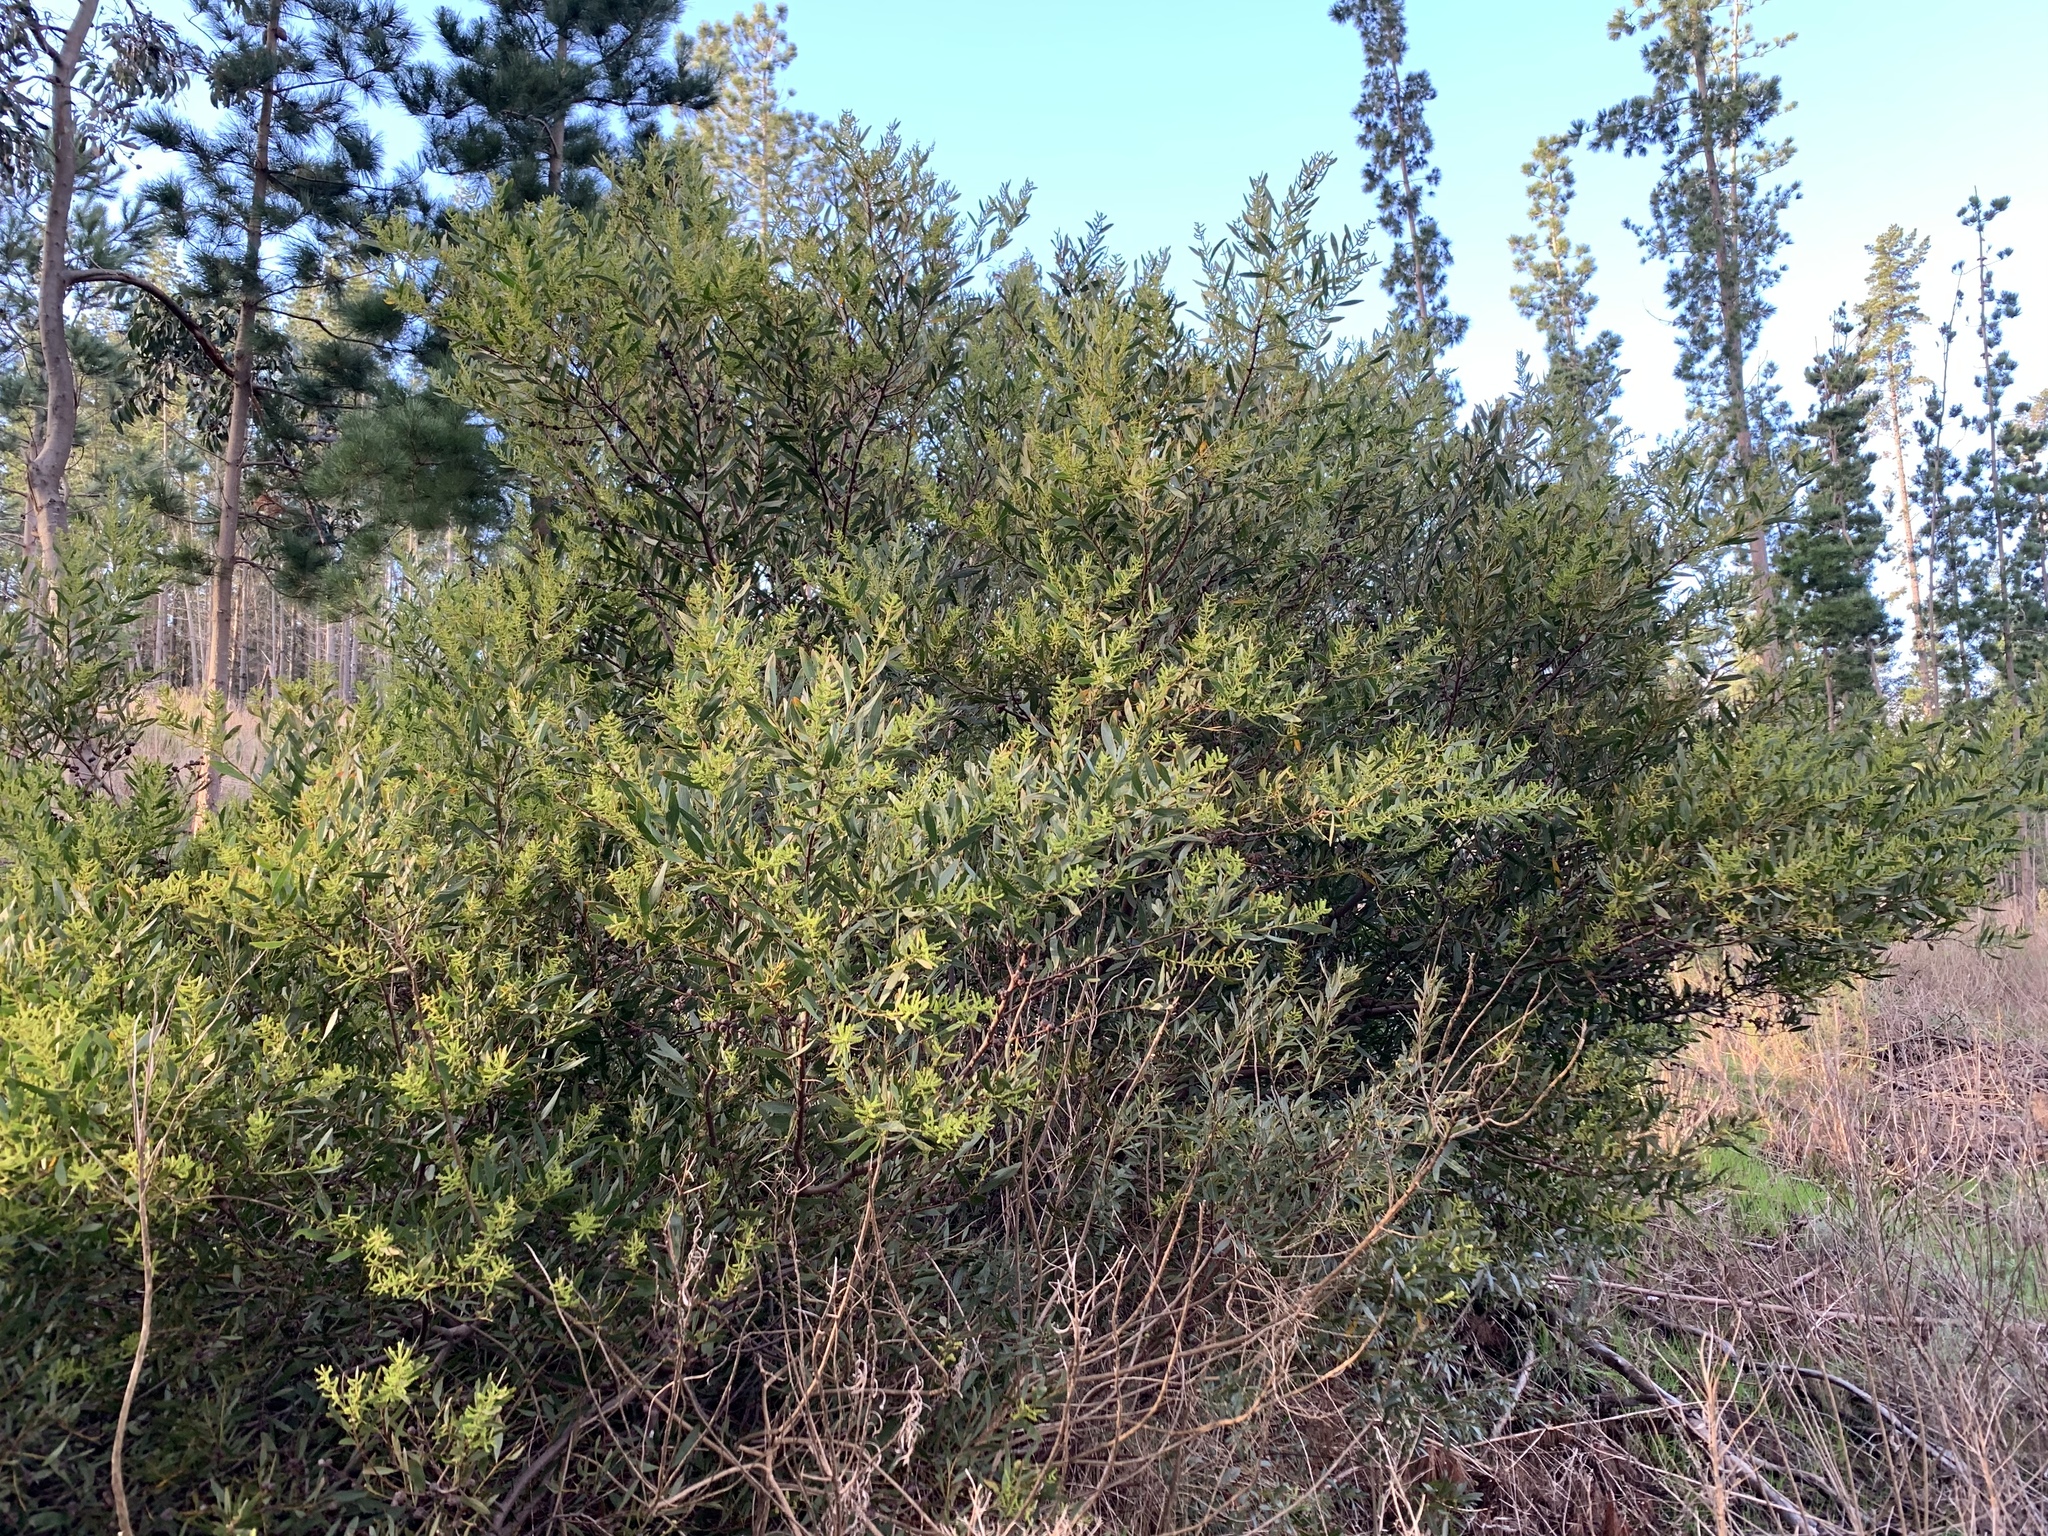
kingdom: Plantae
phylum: Tracheophyta
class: Magnoliopsida
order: Fabales
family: Fabaceae
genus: Acacia
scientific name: Acacia longifolia
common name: Sydney golden wattle
